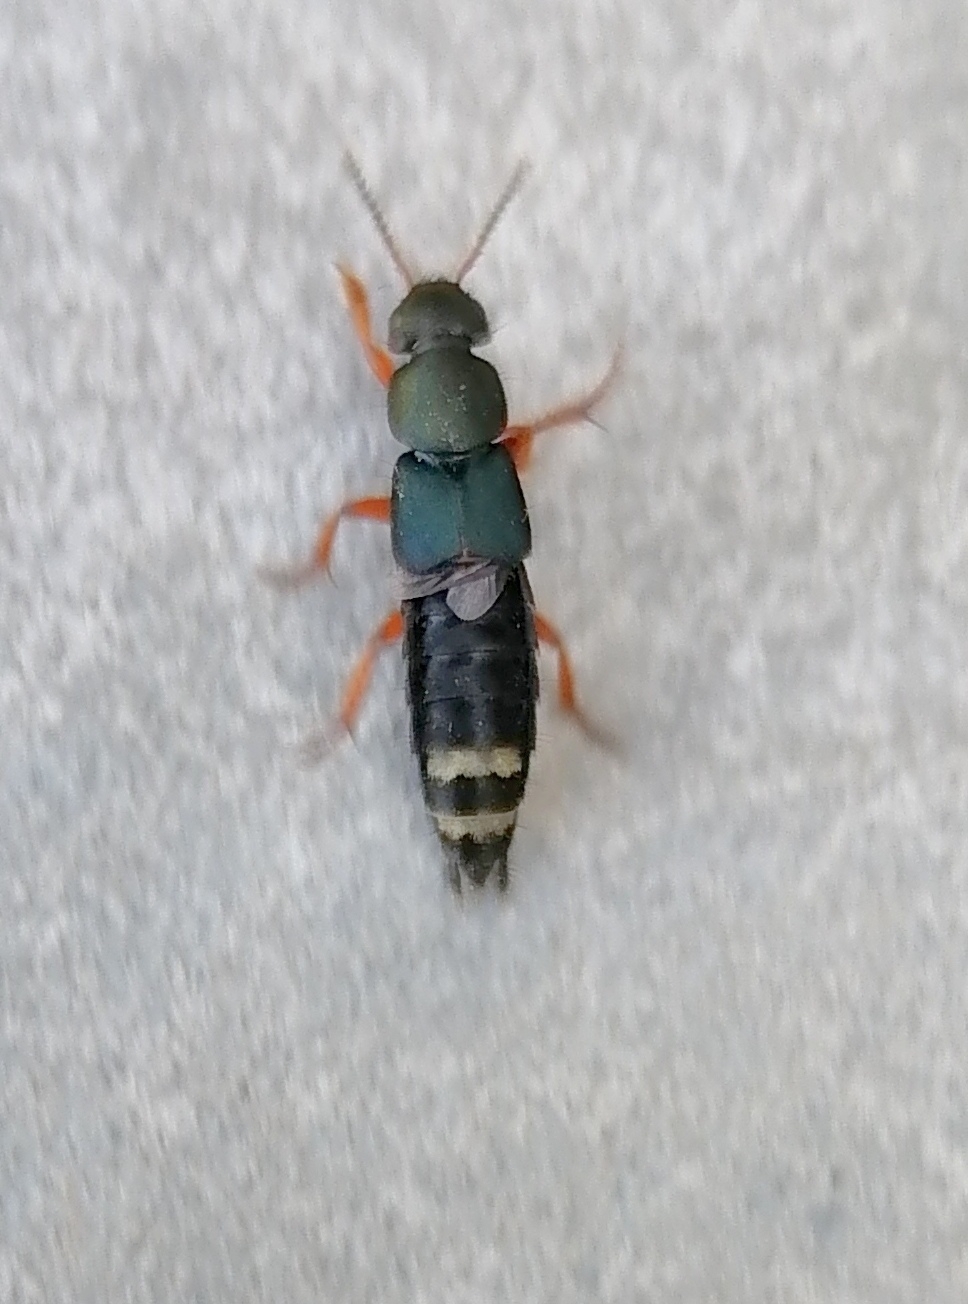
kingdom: Animalia
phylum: Arthropoda
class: Insecta
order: Coleoptera
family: Staphylinidae
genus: Platydracus
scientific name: Platydracus fulvipes
